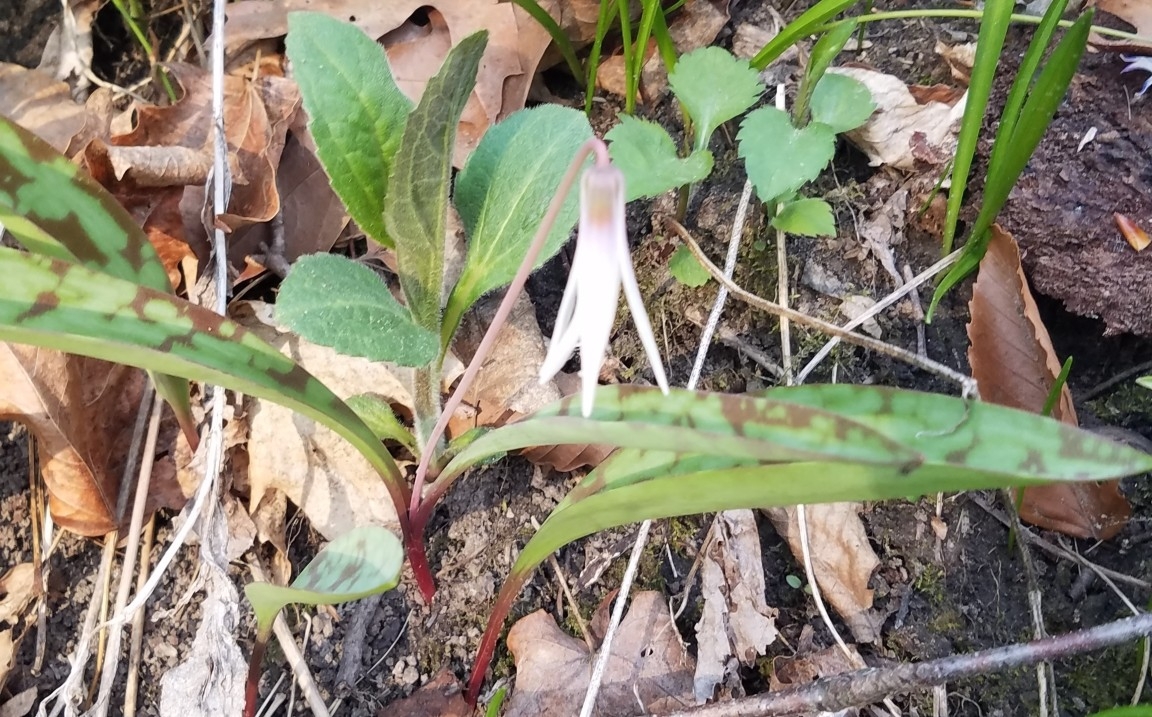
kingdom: Plantae
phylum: Tracheophyta
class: Liliopsida
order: Liliales
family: Liliaceae
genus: Erythronium
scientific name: Erythronium albidum
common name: White trout-lily
